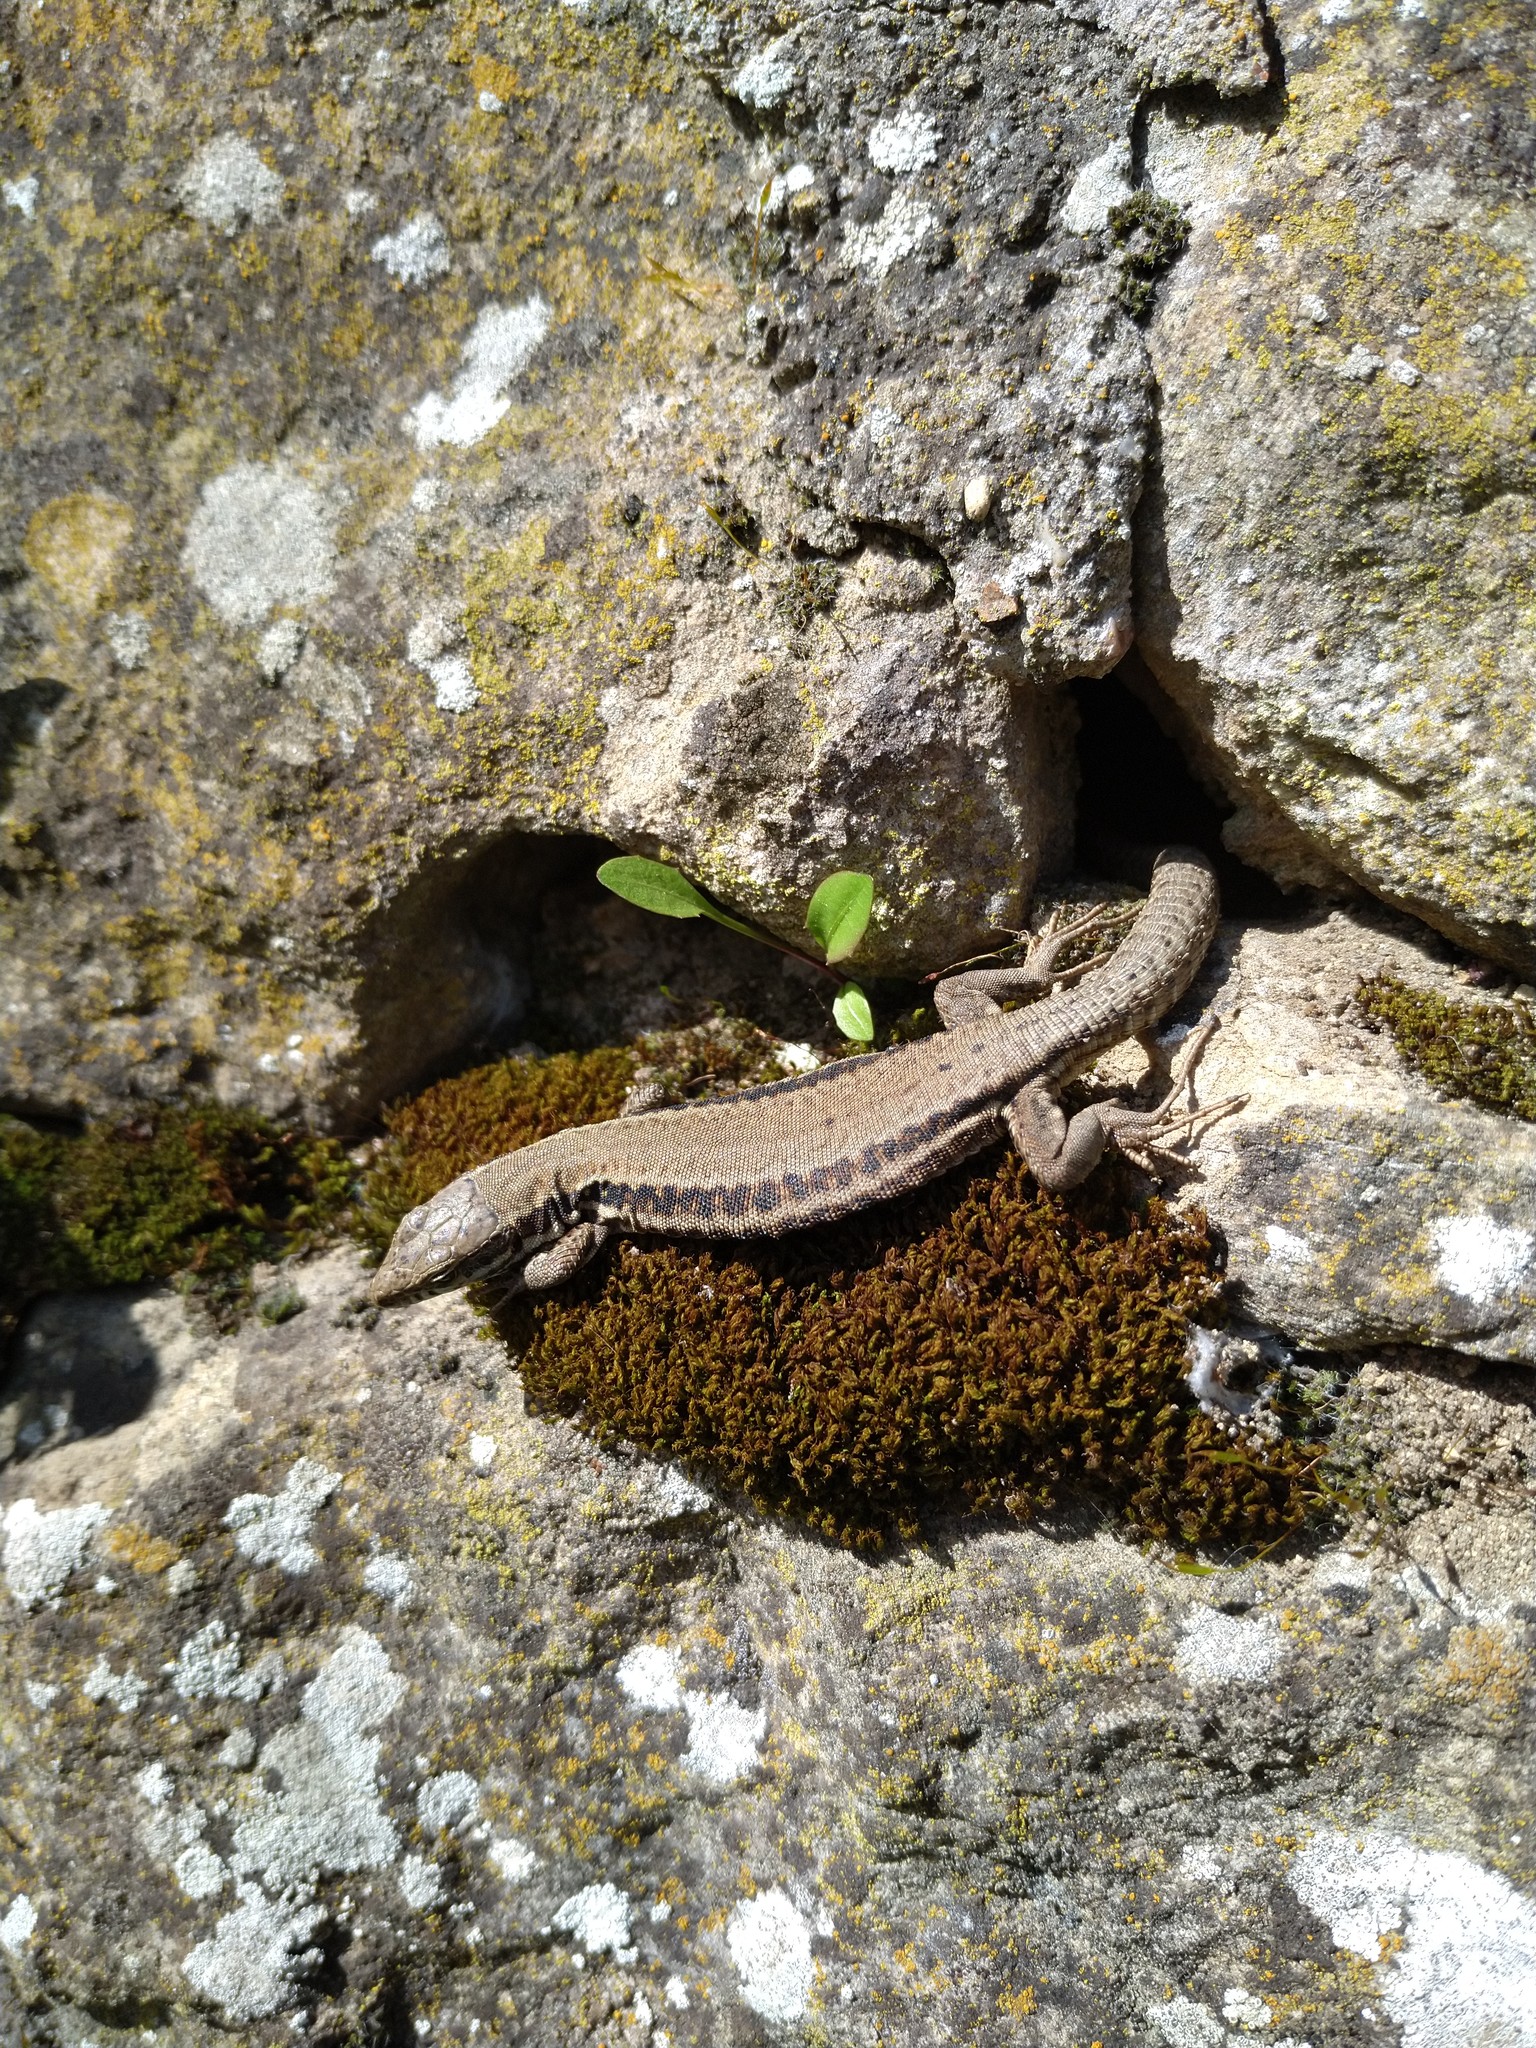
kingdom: Animalia
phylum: Chordata
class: Squamata
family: Lacertidae
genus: Podarcis
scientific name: Podarcis muralis
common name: Common wall lizard
